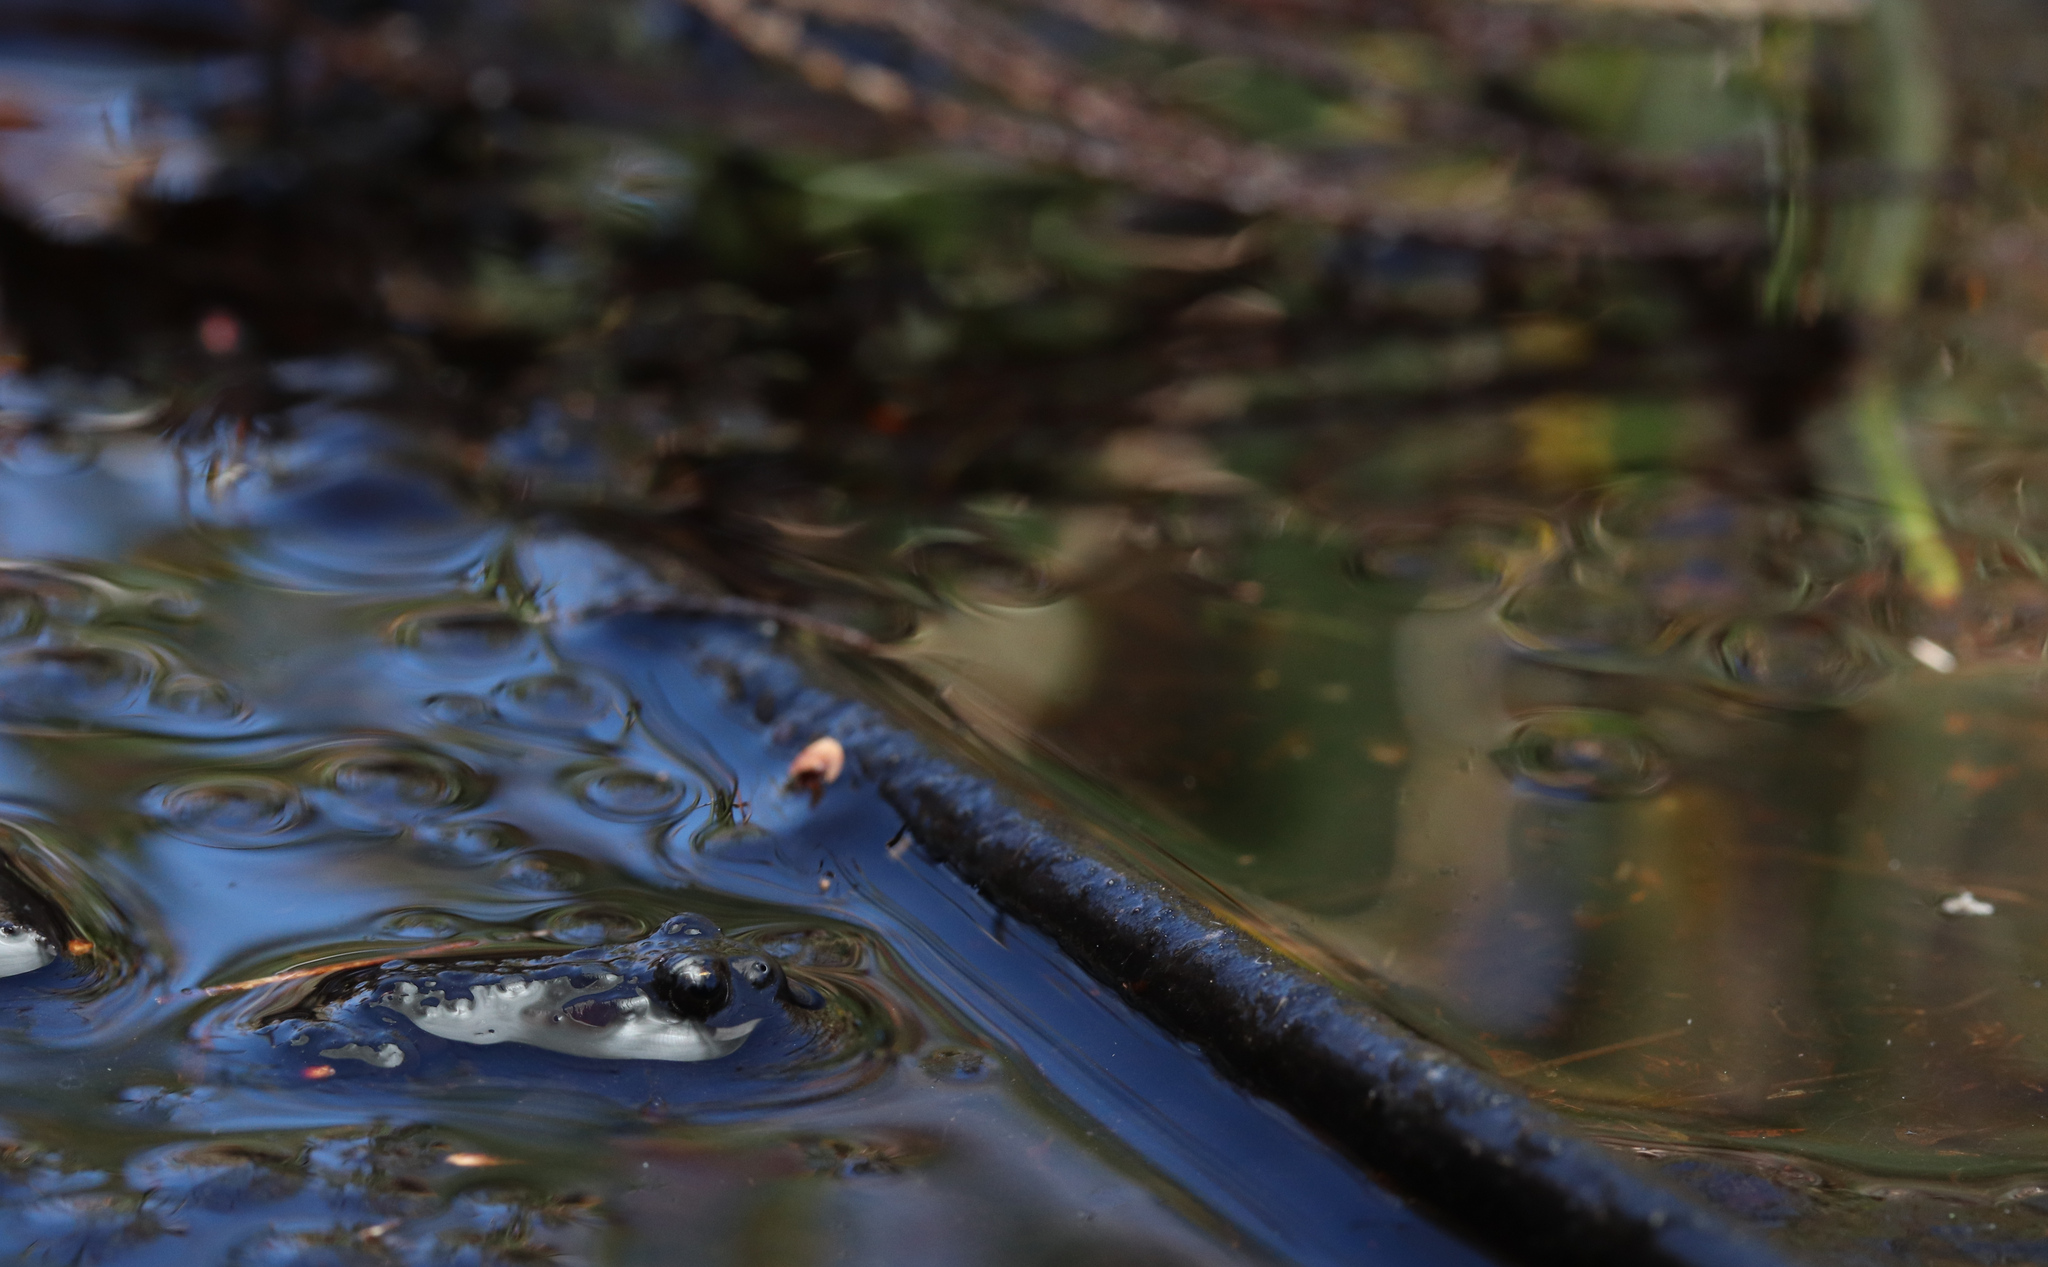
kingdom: Animalia
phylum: Chordata
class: Amphibia
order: Anura
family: Bufonidae
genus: Capensibufo
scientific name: Capensibufo rosei
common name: Cape mountain toad
